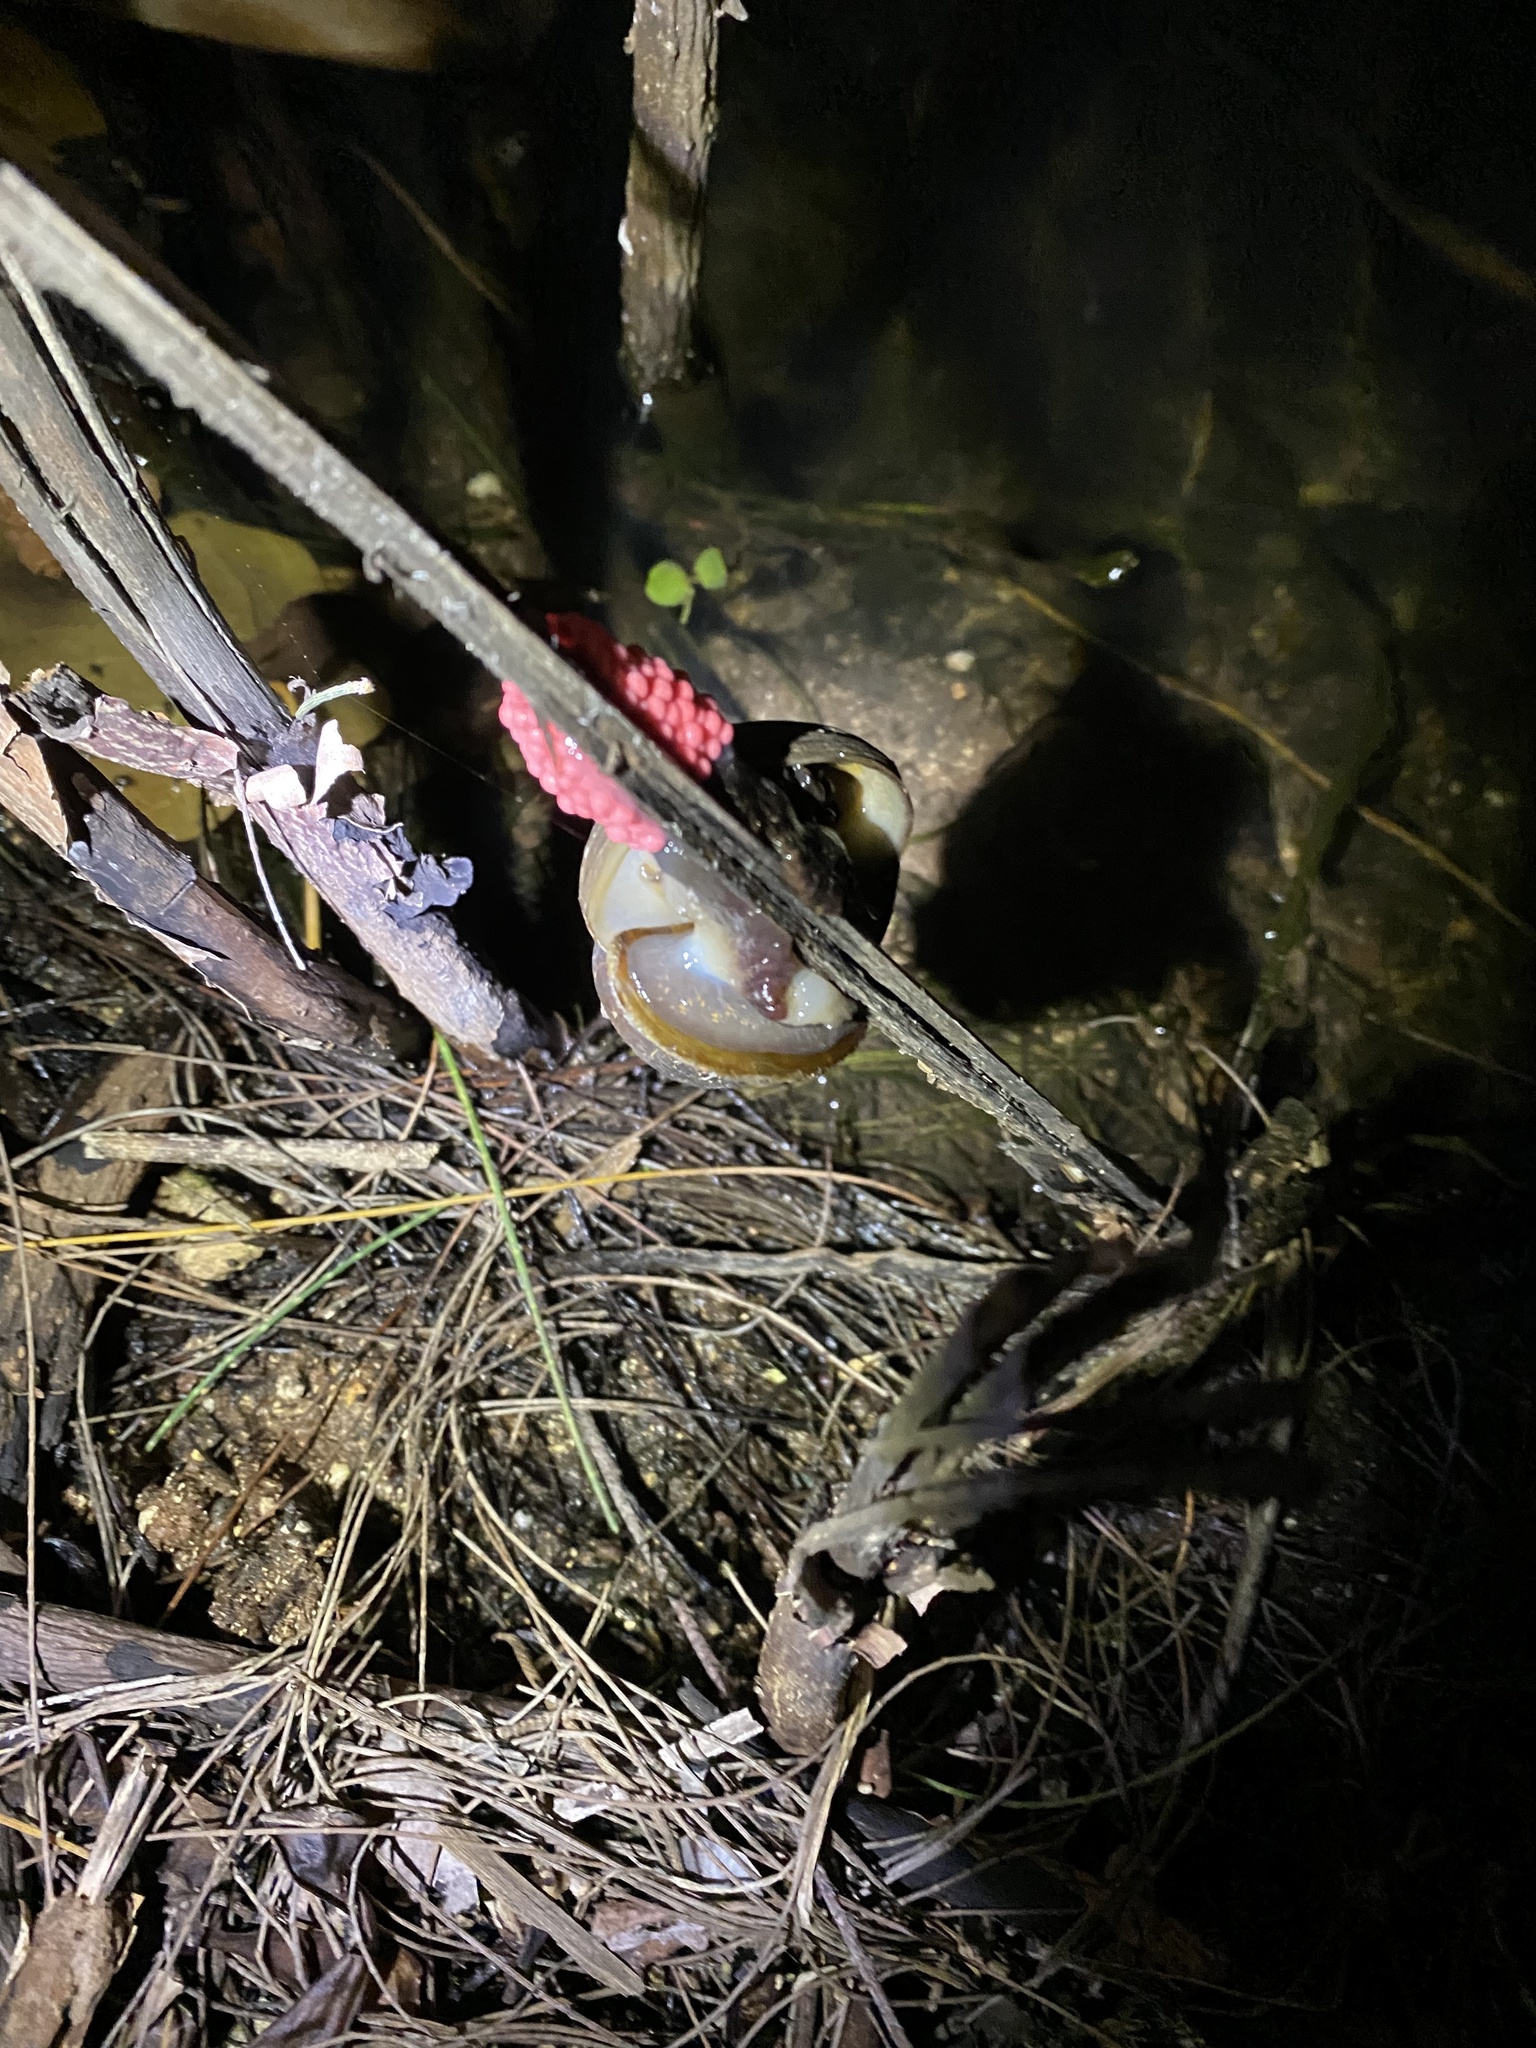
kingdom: Animalia
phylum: Mollusca
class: Gastropoda
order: Architaenioglossa
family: Ampullariidae
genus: Pomacea
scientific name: Pomacea canaliculata
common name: Channeled applesnail
